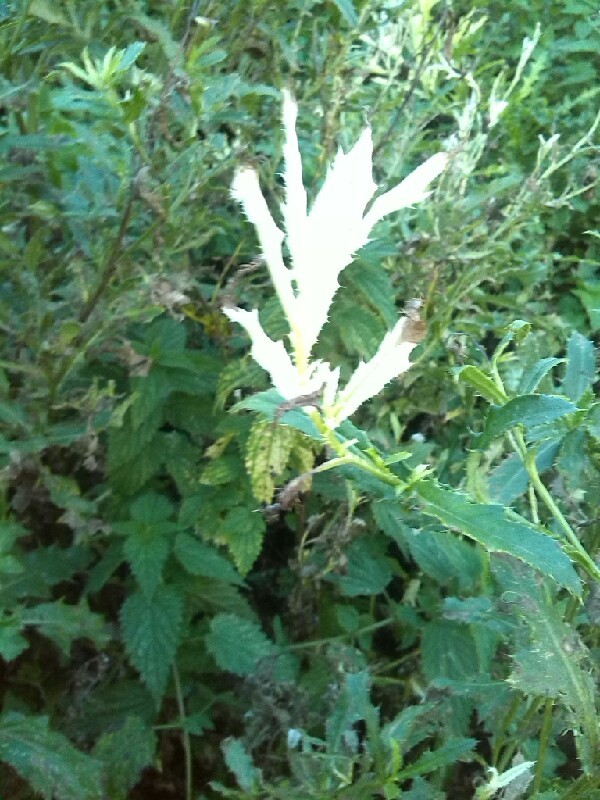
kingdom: Bacteria
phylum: Proteobacteria
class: Gammaproteobacteria
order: Pseudomonadales
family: Pseudomonadaceae
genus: Pseudomonas
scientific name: Pseudomonas syringae
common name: Bacterial speck
